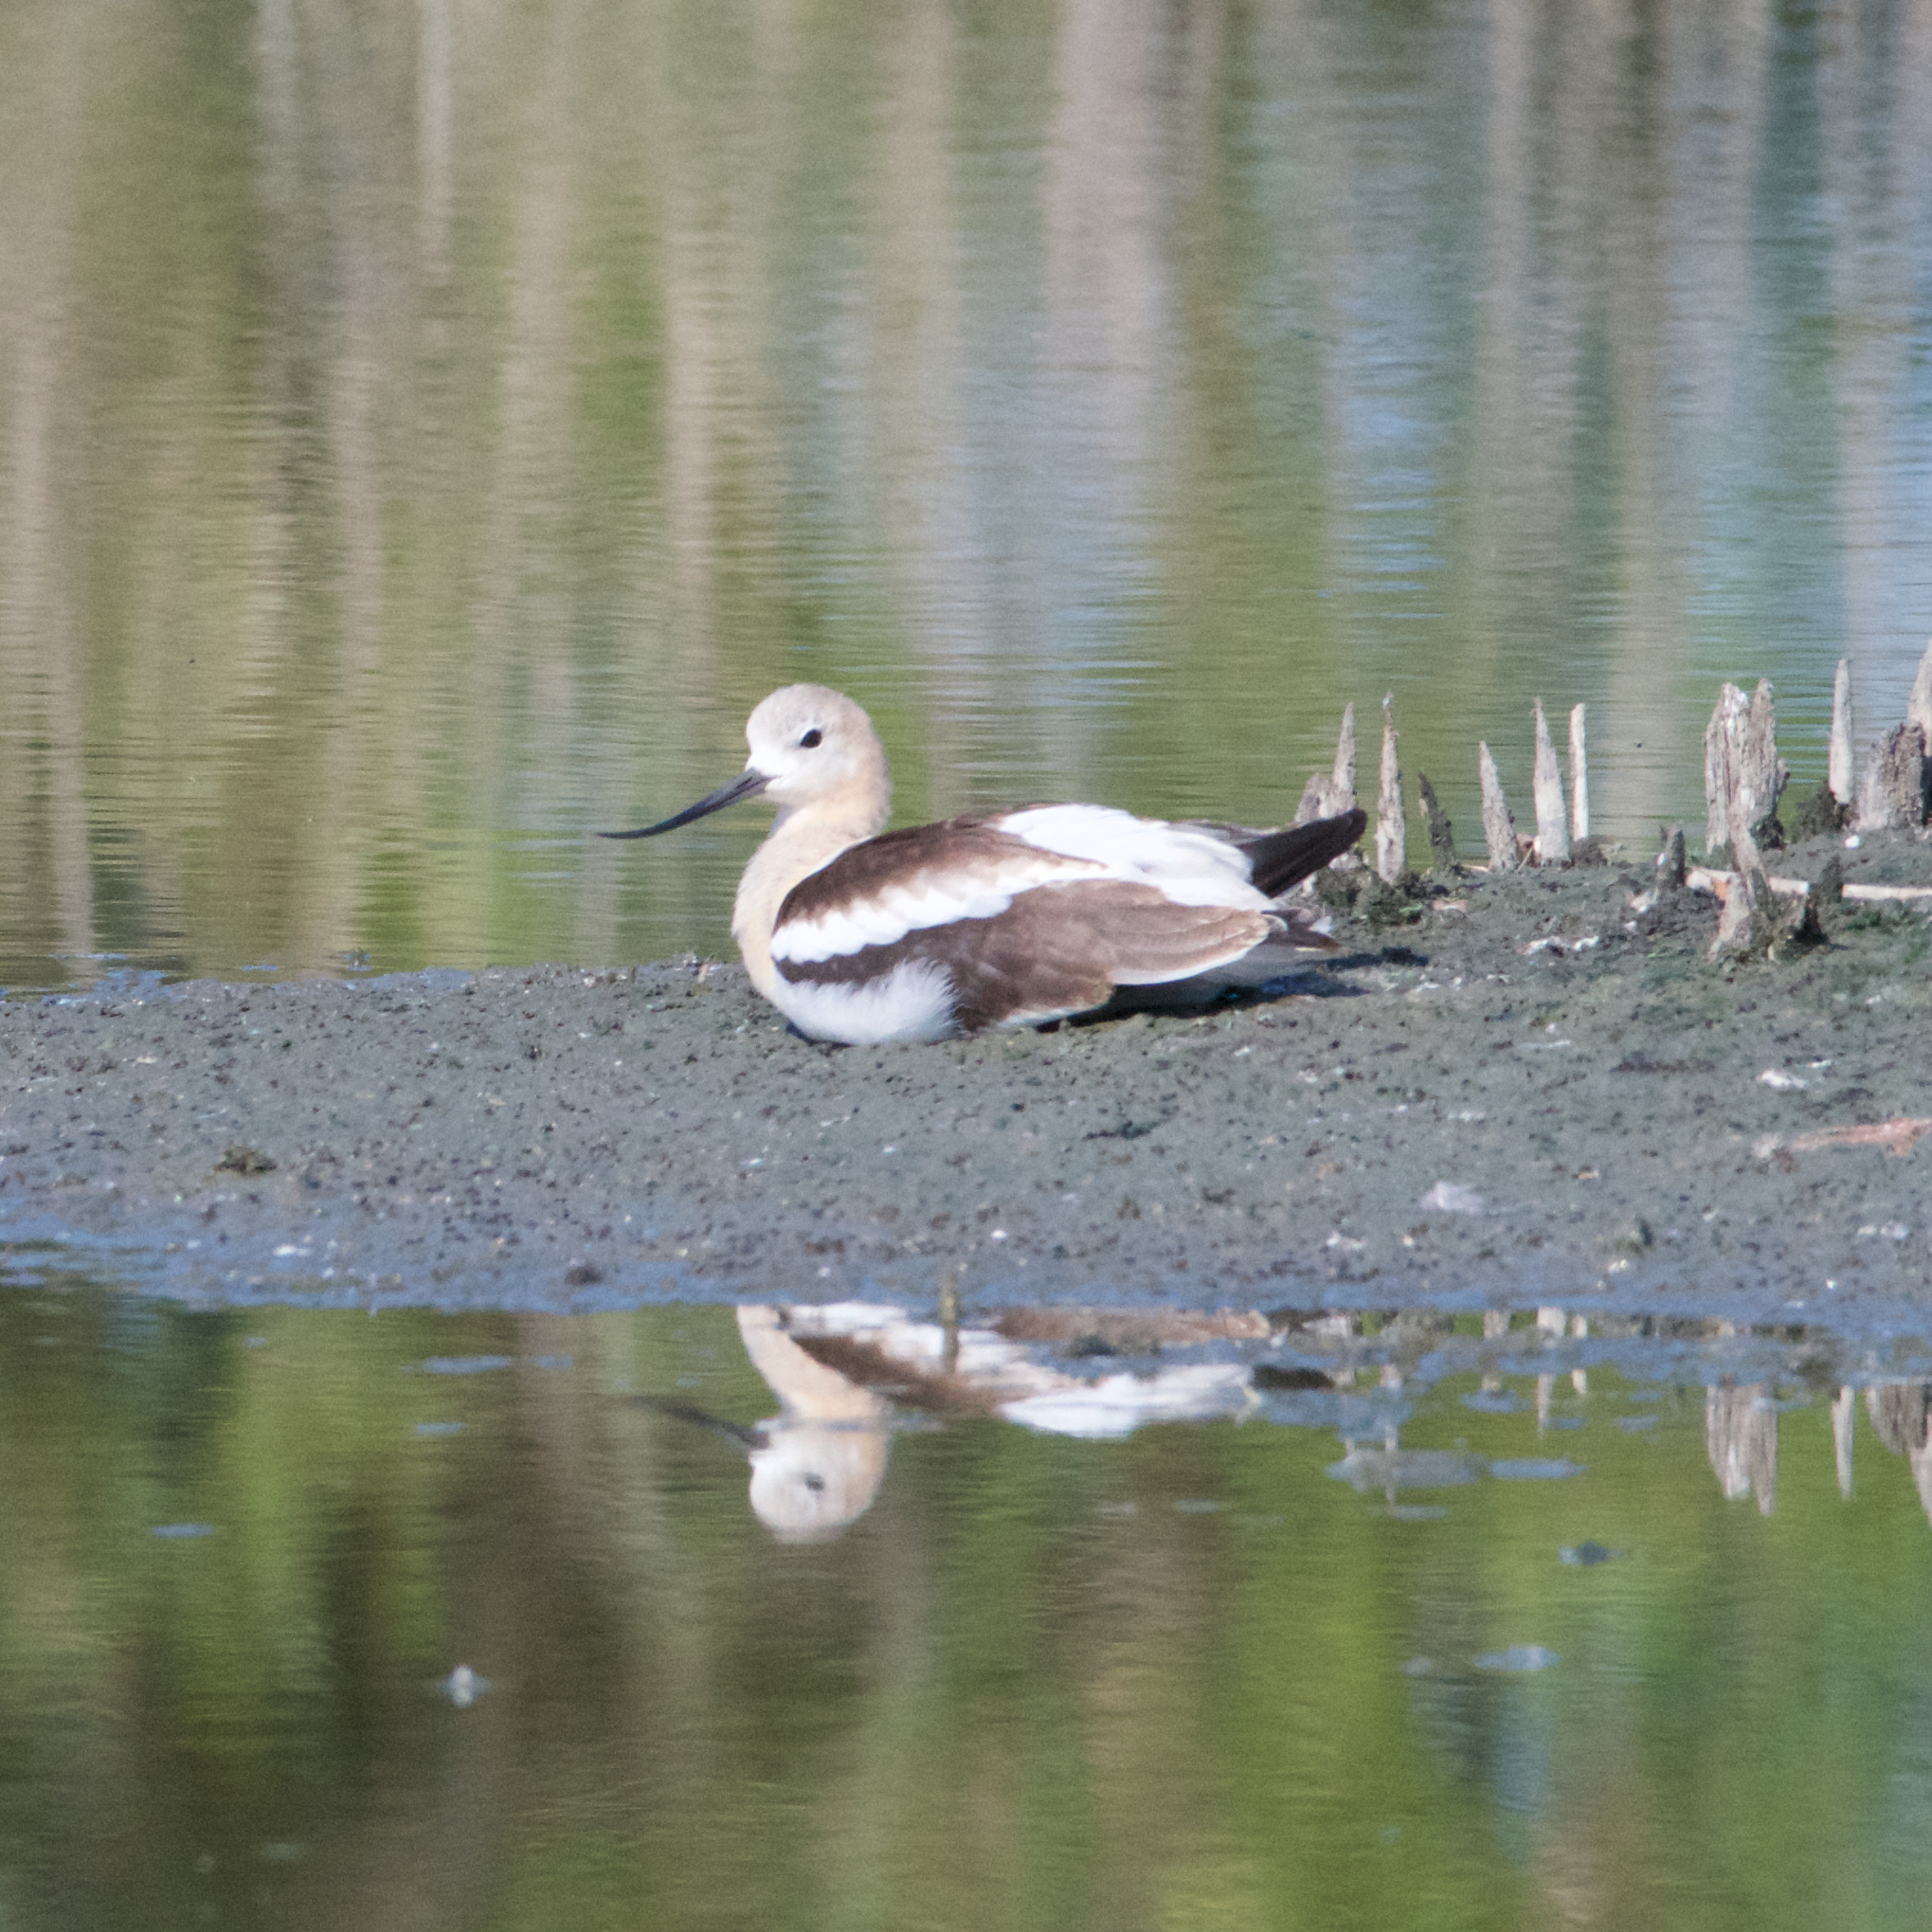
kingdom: Animalia
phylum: Chordata
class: Aves
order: Charadriiformes
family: Recurvirostridae
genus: Recurvirostra
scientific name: Recurvirostra americana
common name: American avocet
